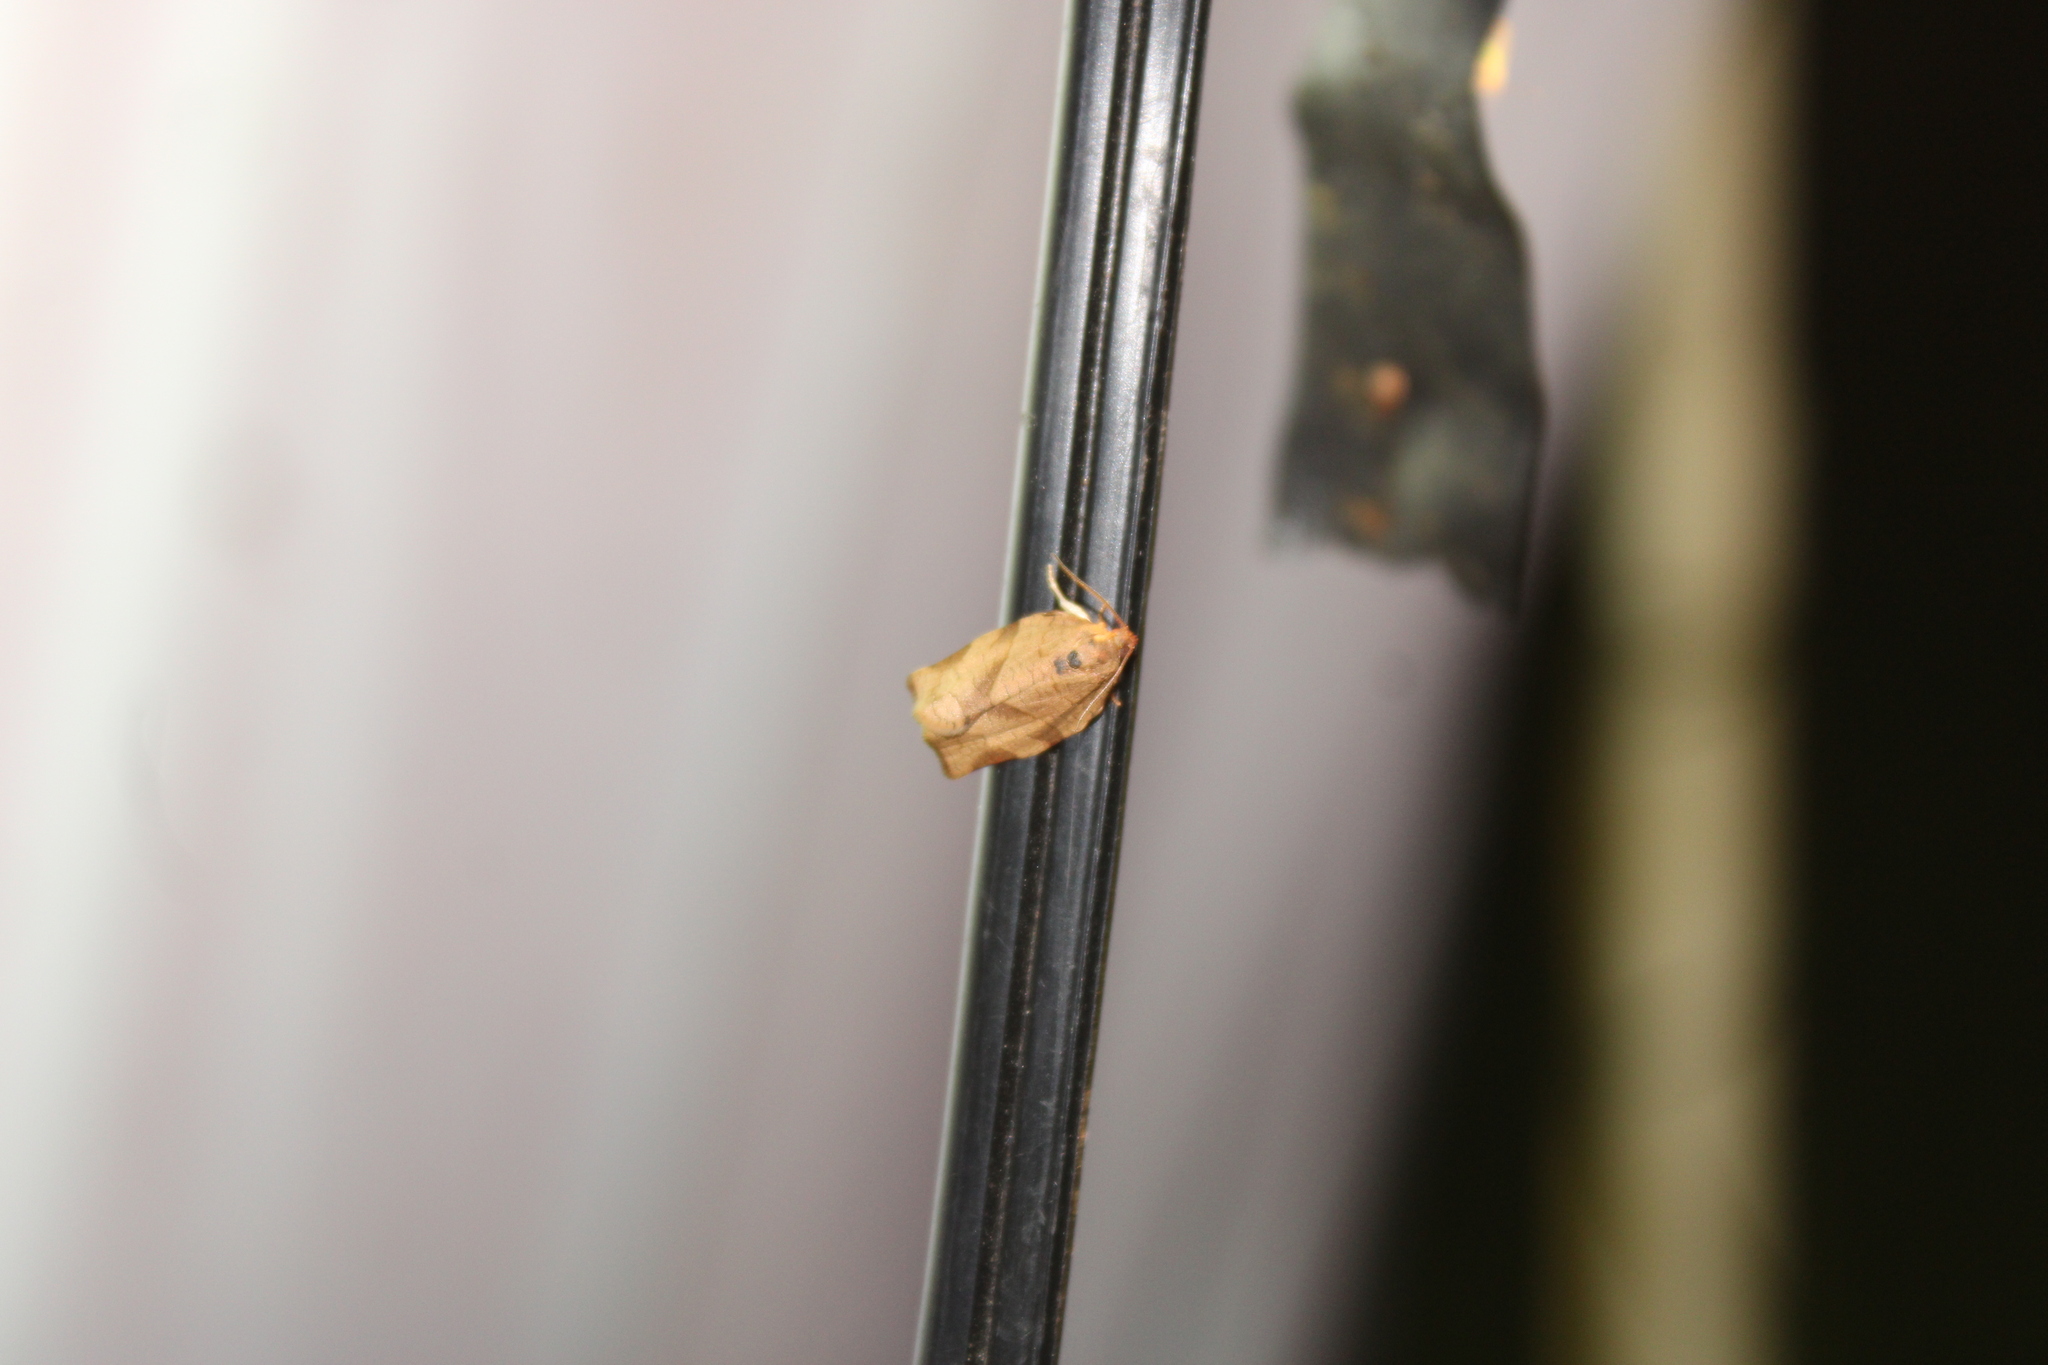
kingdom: Animalia
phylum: Arthropoda
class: Insecta
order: Lepidoptera
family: Tortricidae
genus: Choristoneura
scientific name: Choristoneura rosaceana
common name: Oblique-banded leafroller moth
